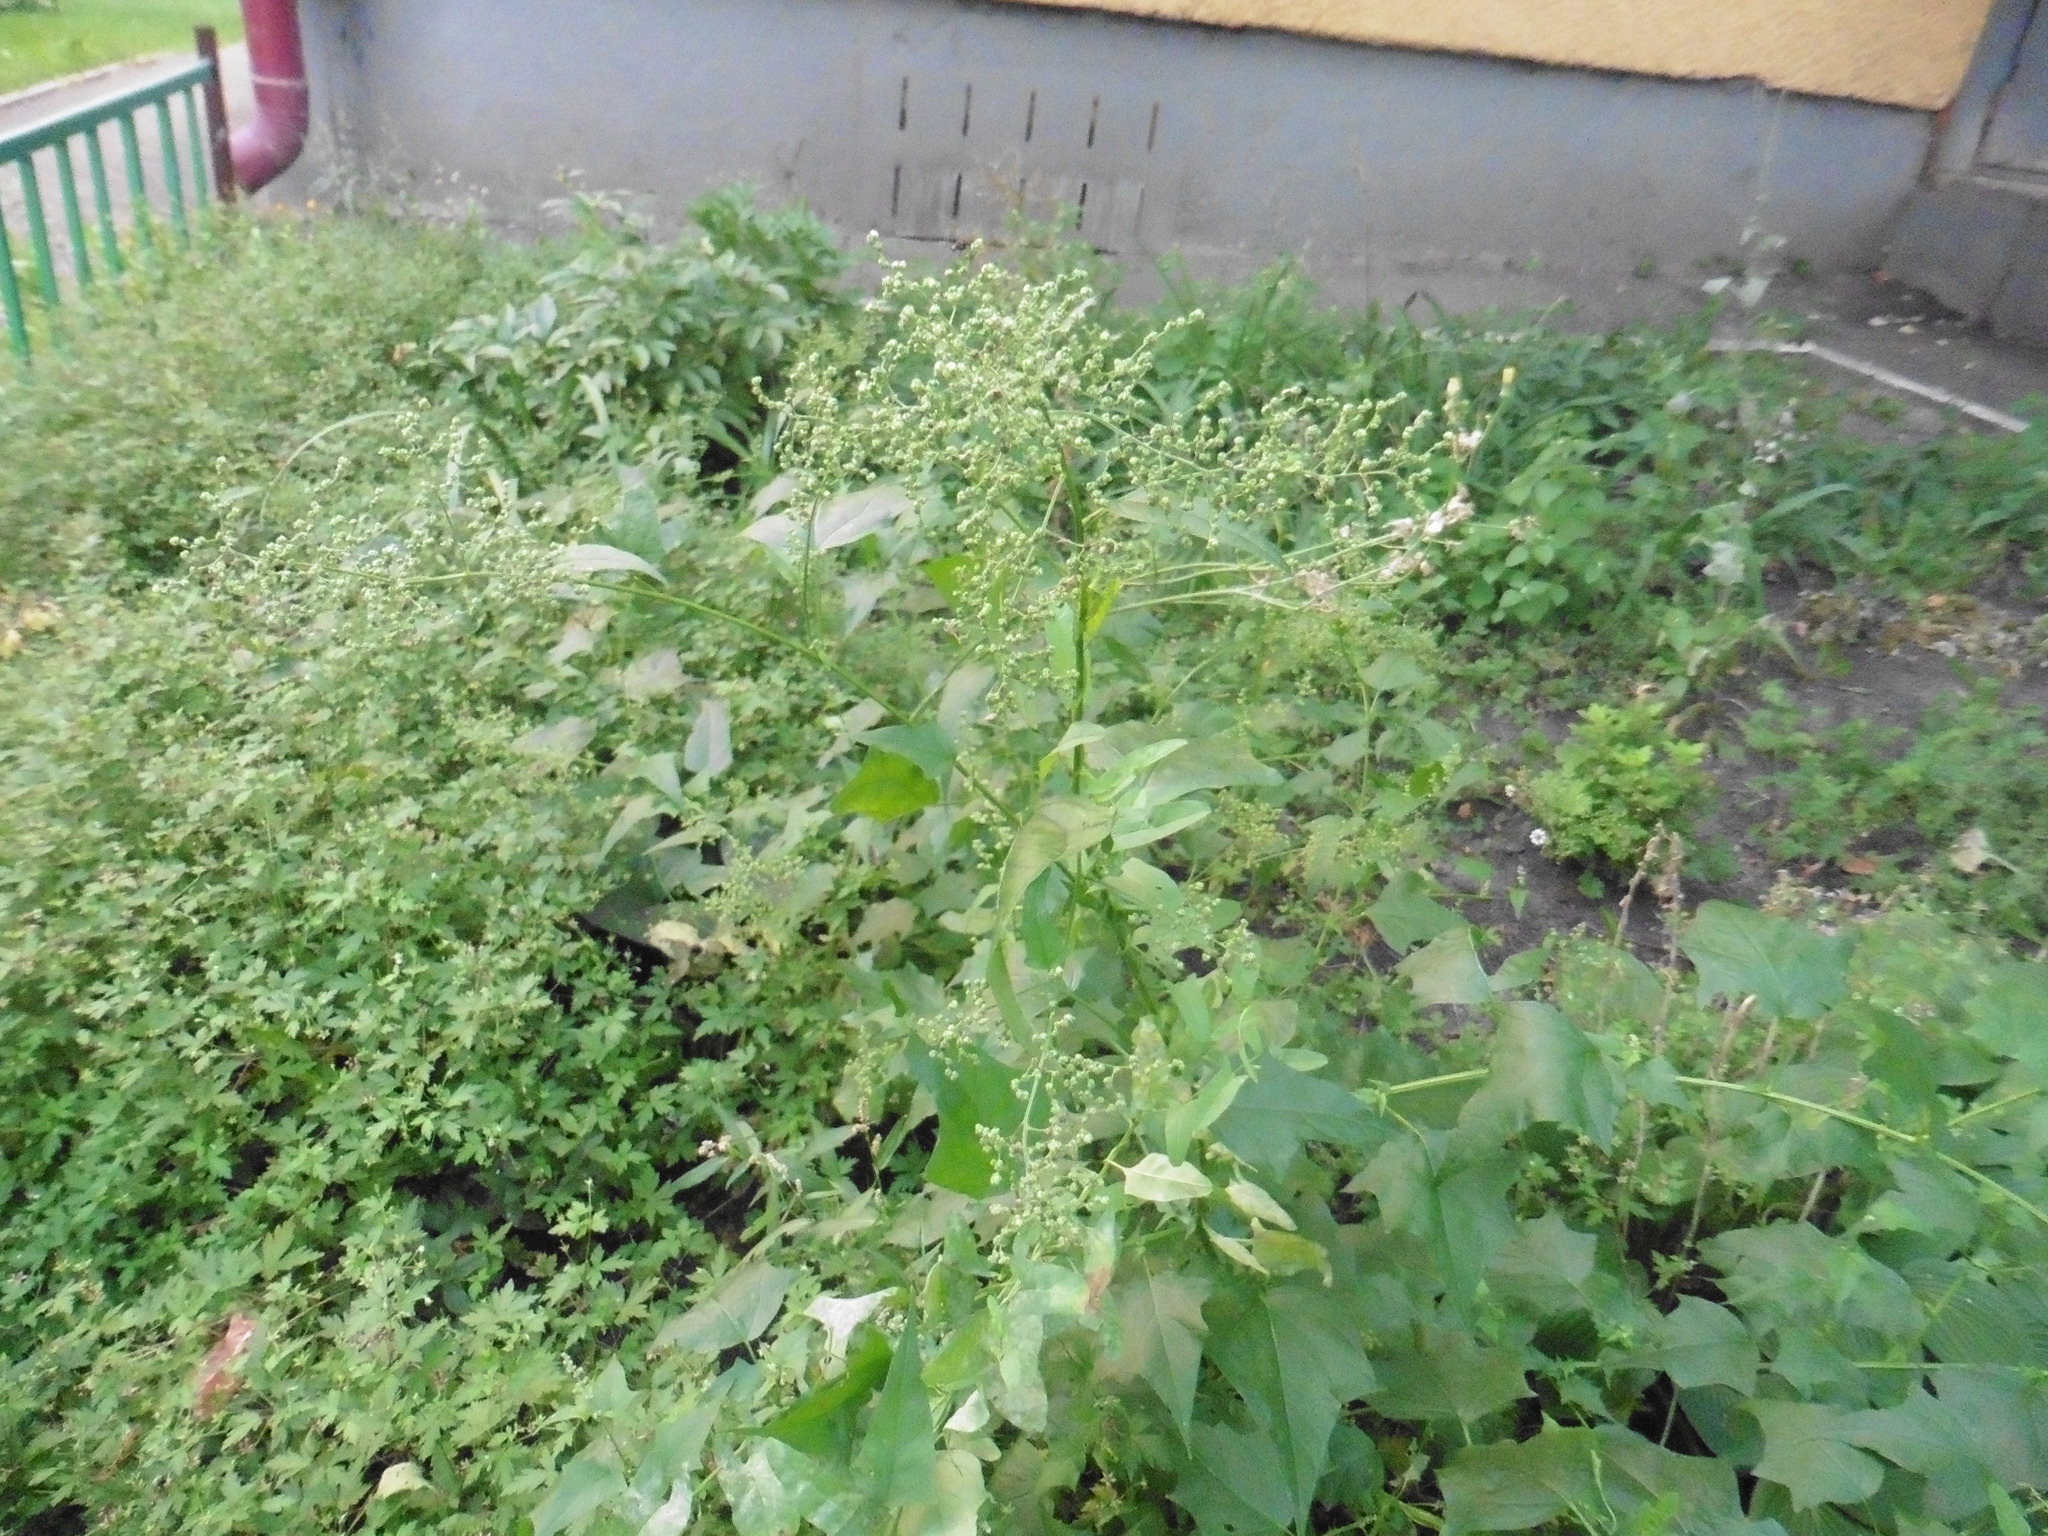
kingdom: Plantae
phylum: Tracheophyta
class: Magnoliopsida
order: Caryophyllales
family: Amaranthaceae
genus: Chenopodiastrum
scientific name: Chenopodiastrum hybridum
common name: Mapleleaf goosefoot
